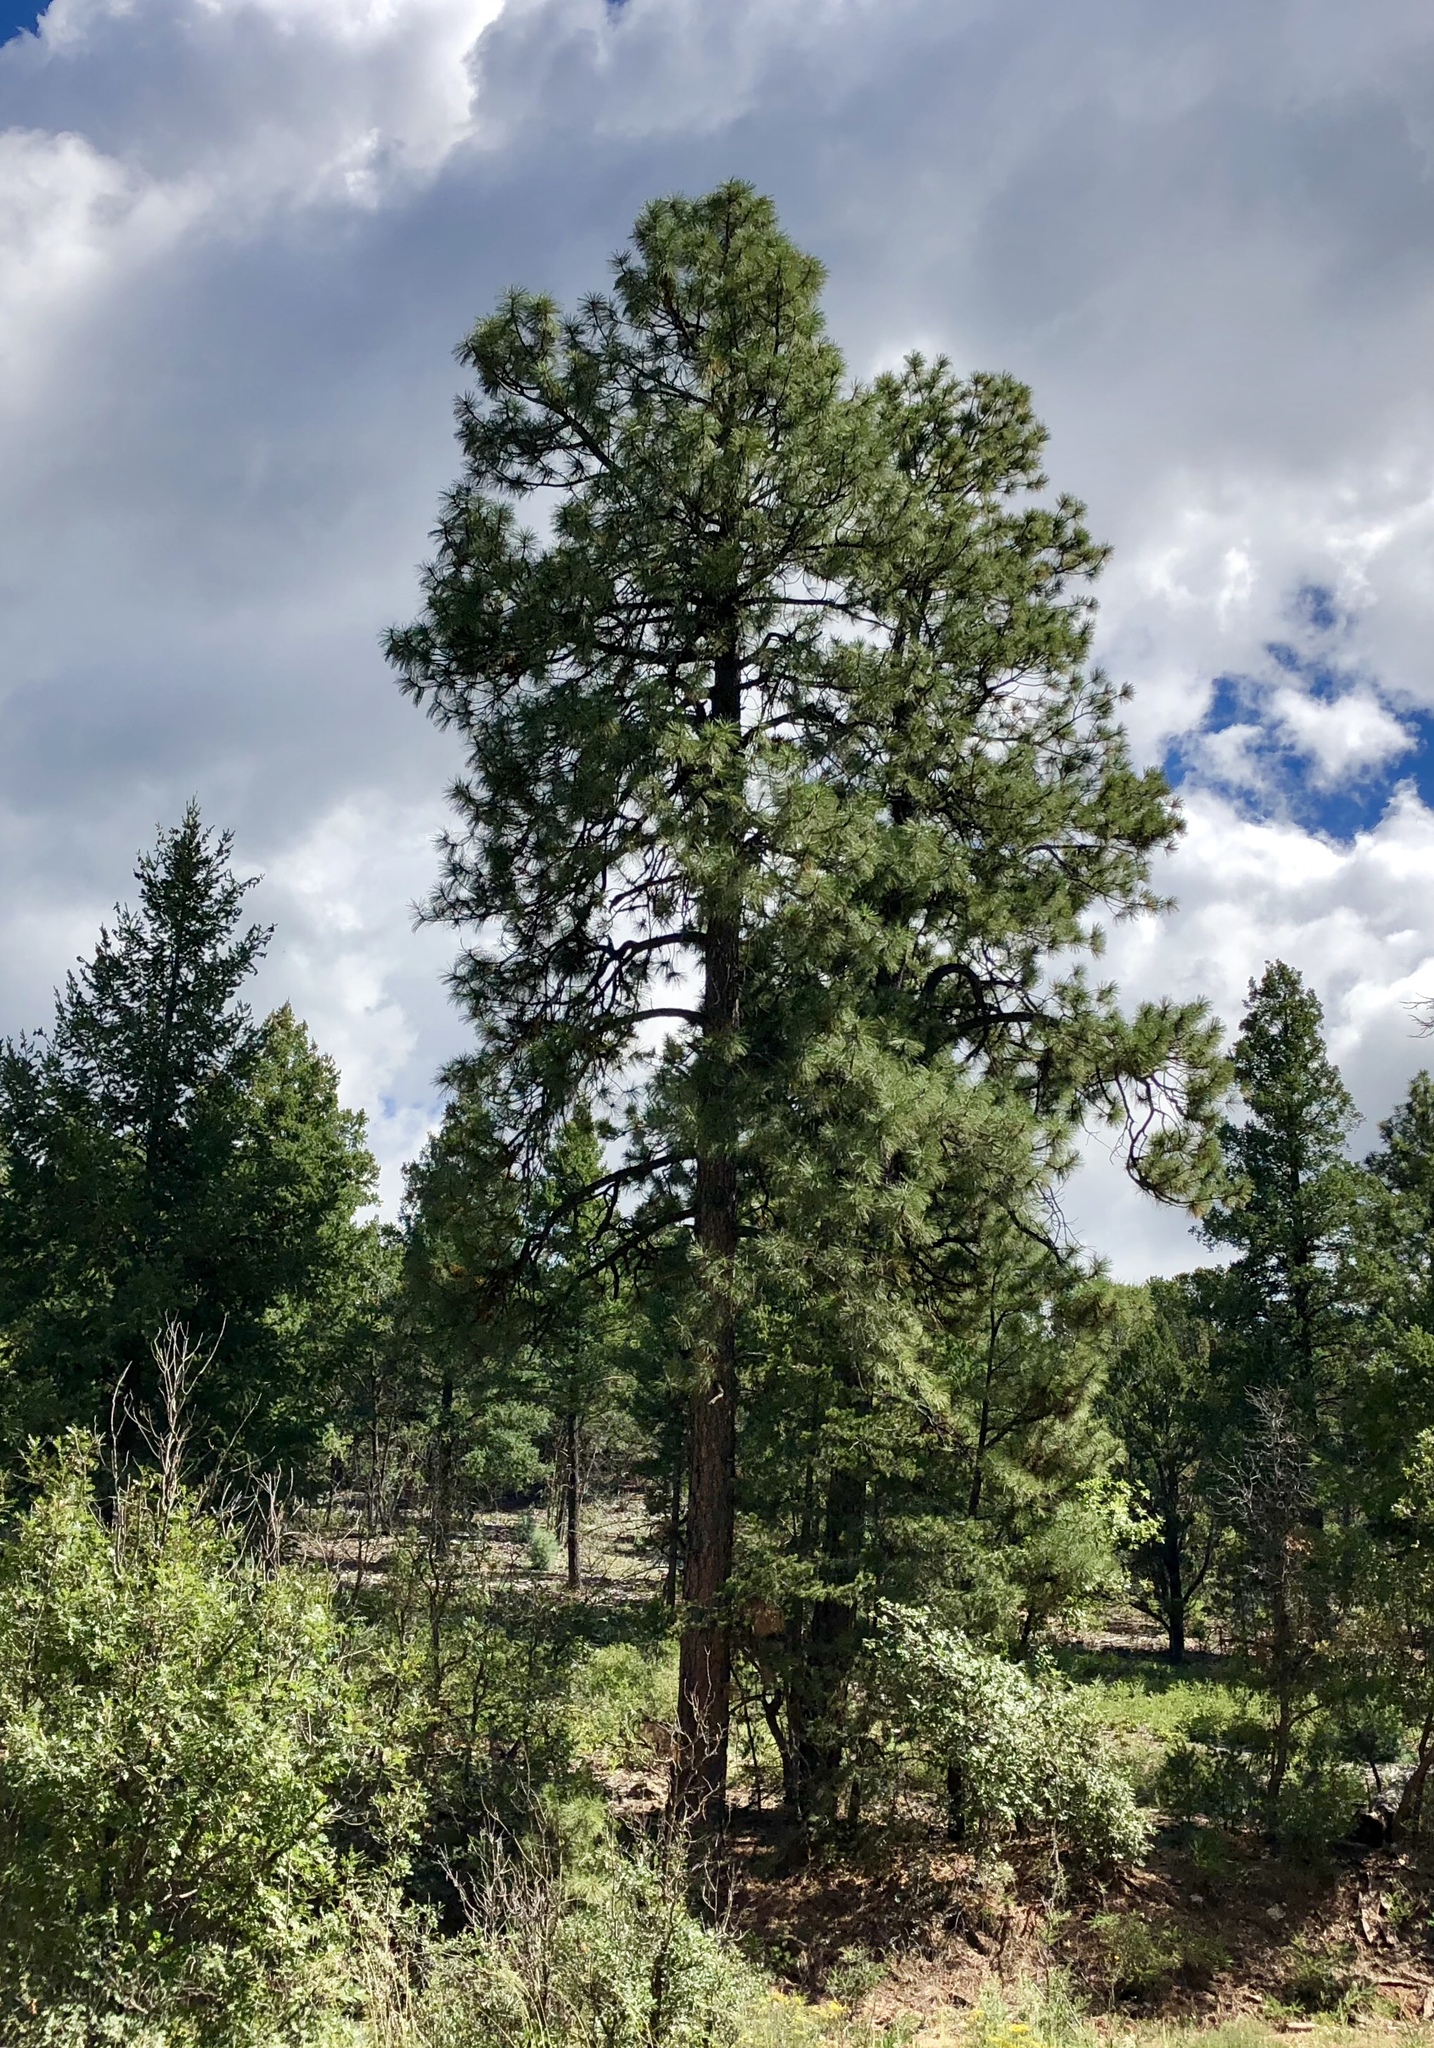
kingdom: Plantae
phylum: Tracheophyta
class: Pinopsida
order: Pinales
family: Pinaceae
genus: Pinus
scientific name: Pinus ponderosa
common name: Western yellow-pine
